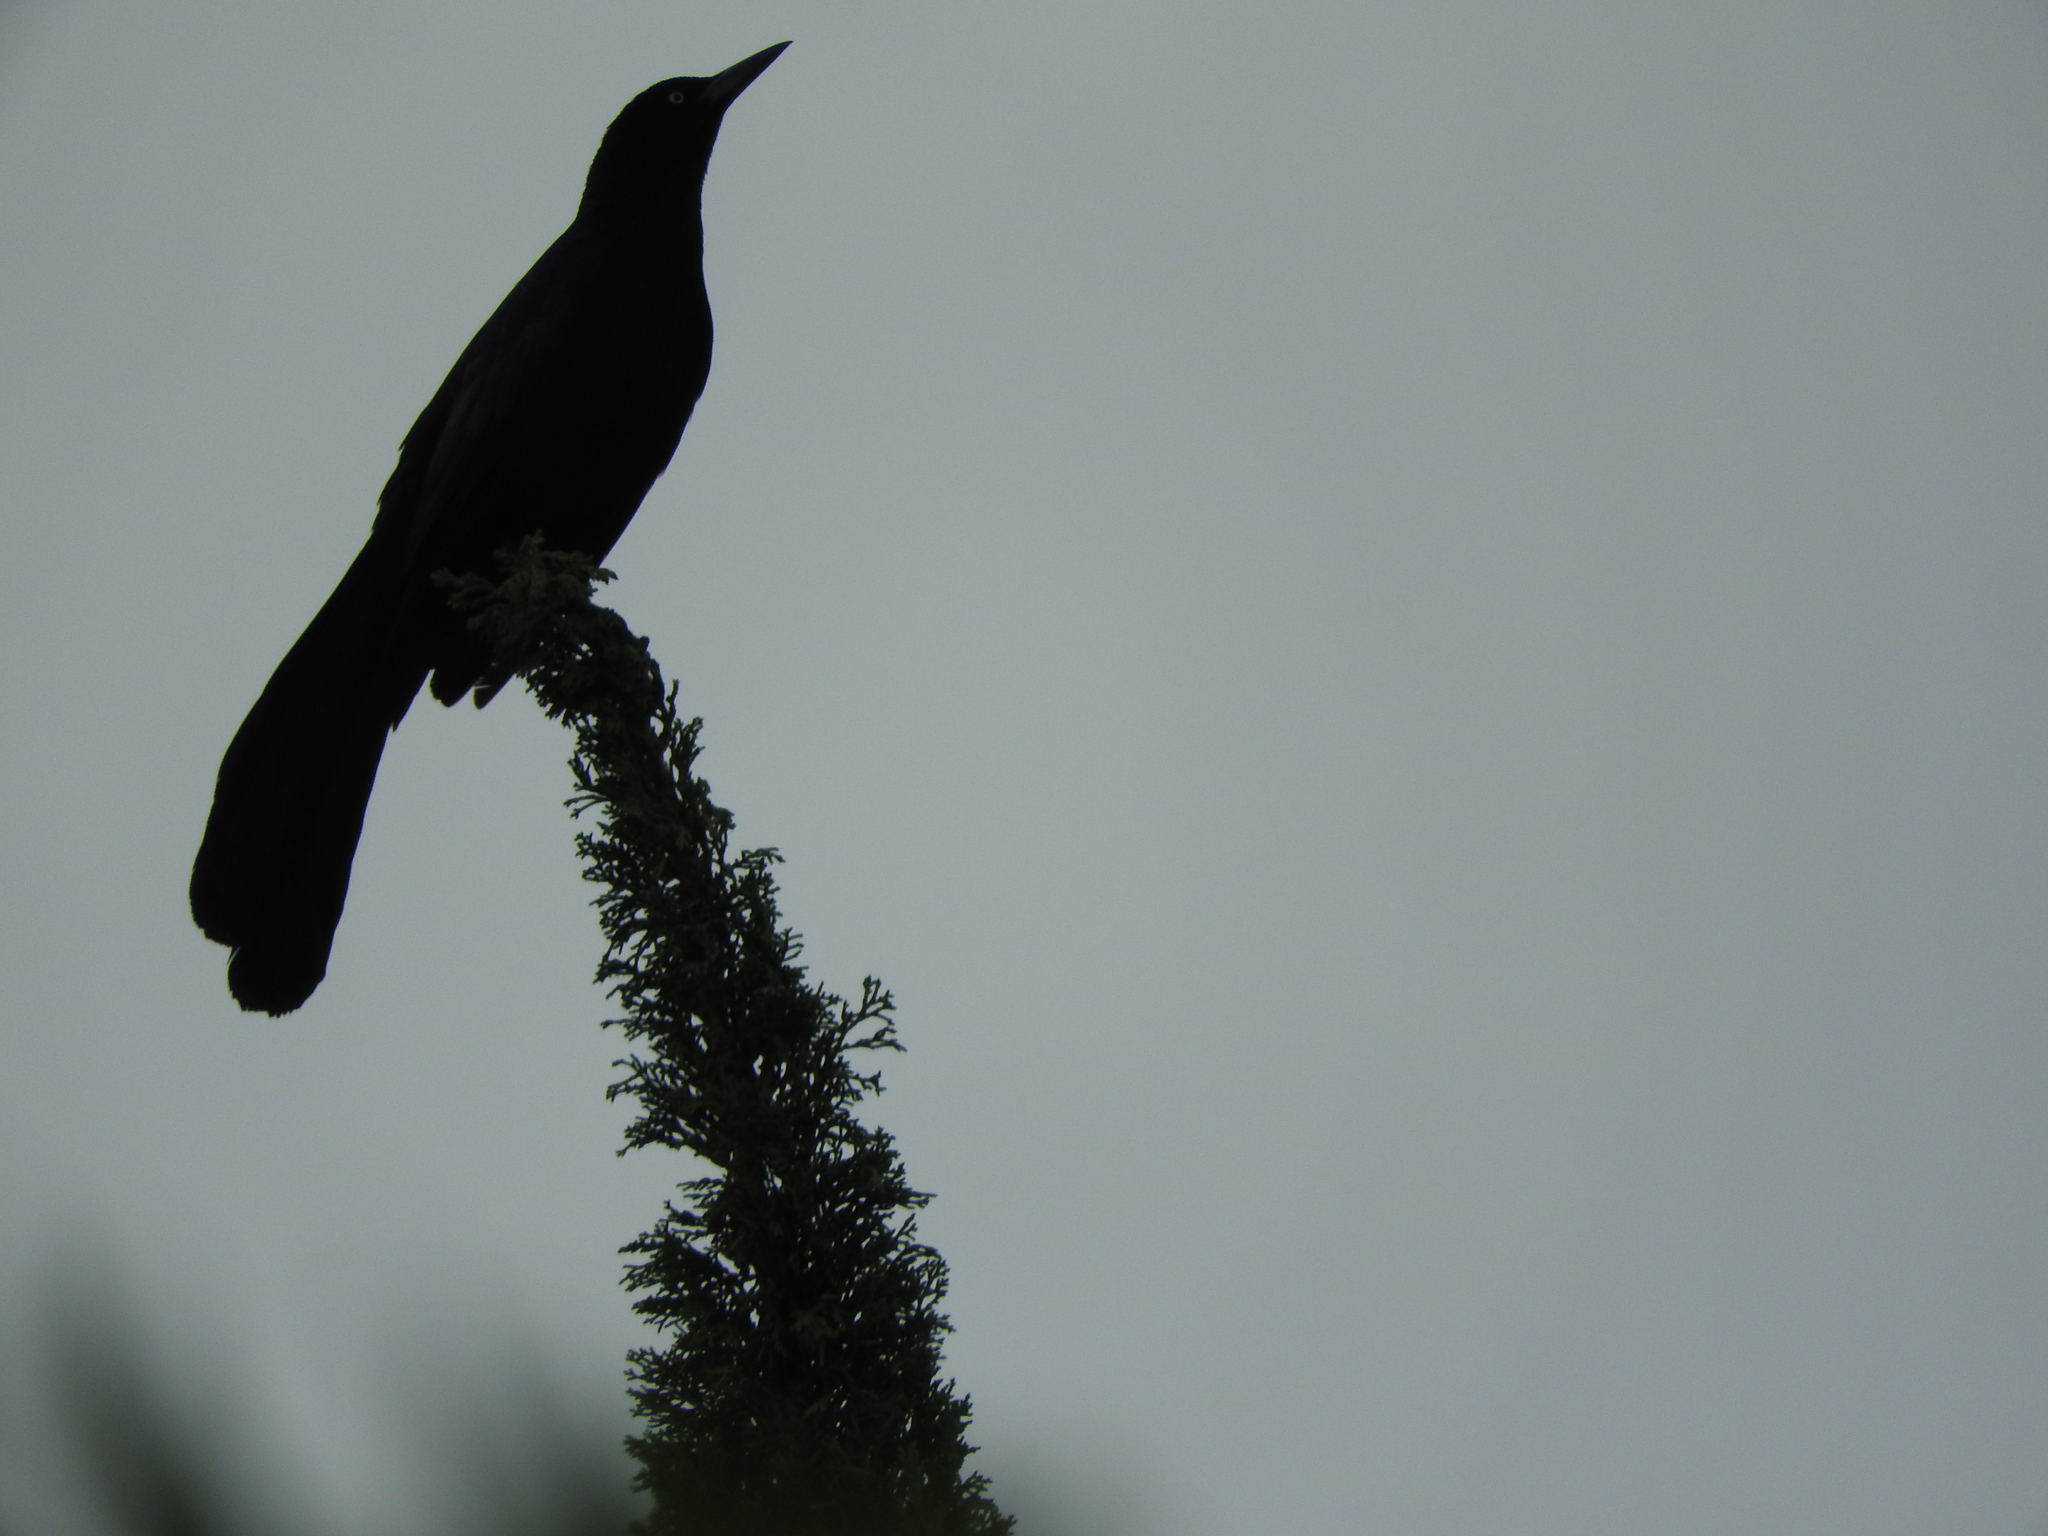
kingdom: Animalia
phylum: Chordata
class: Aves
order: Passeriformes
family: Icteridae
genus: Quiscalus
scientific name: Quiscalus mexicanus
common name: Great-tailed grackle
